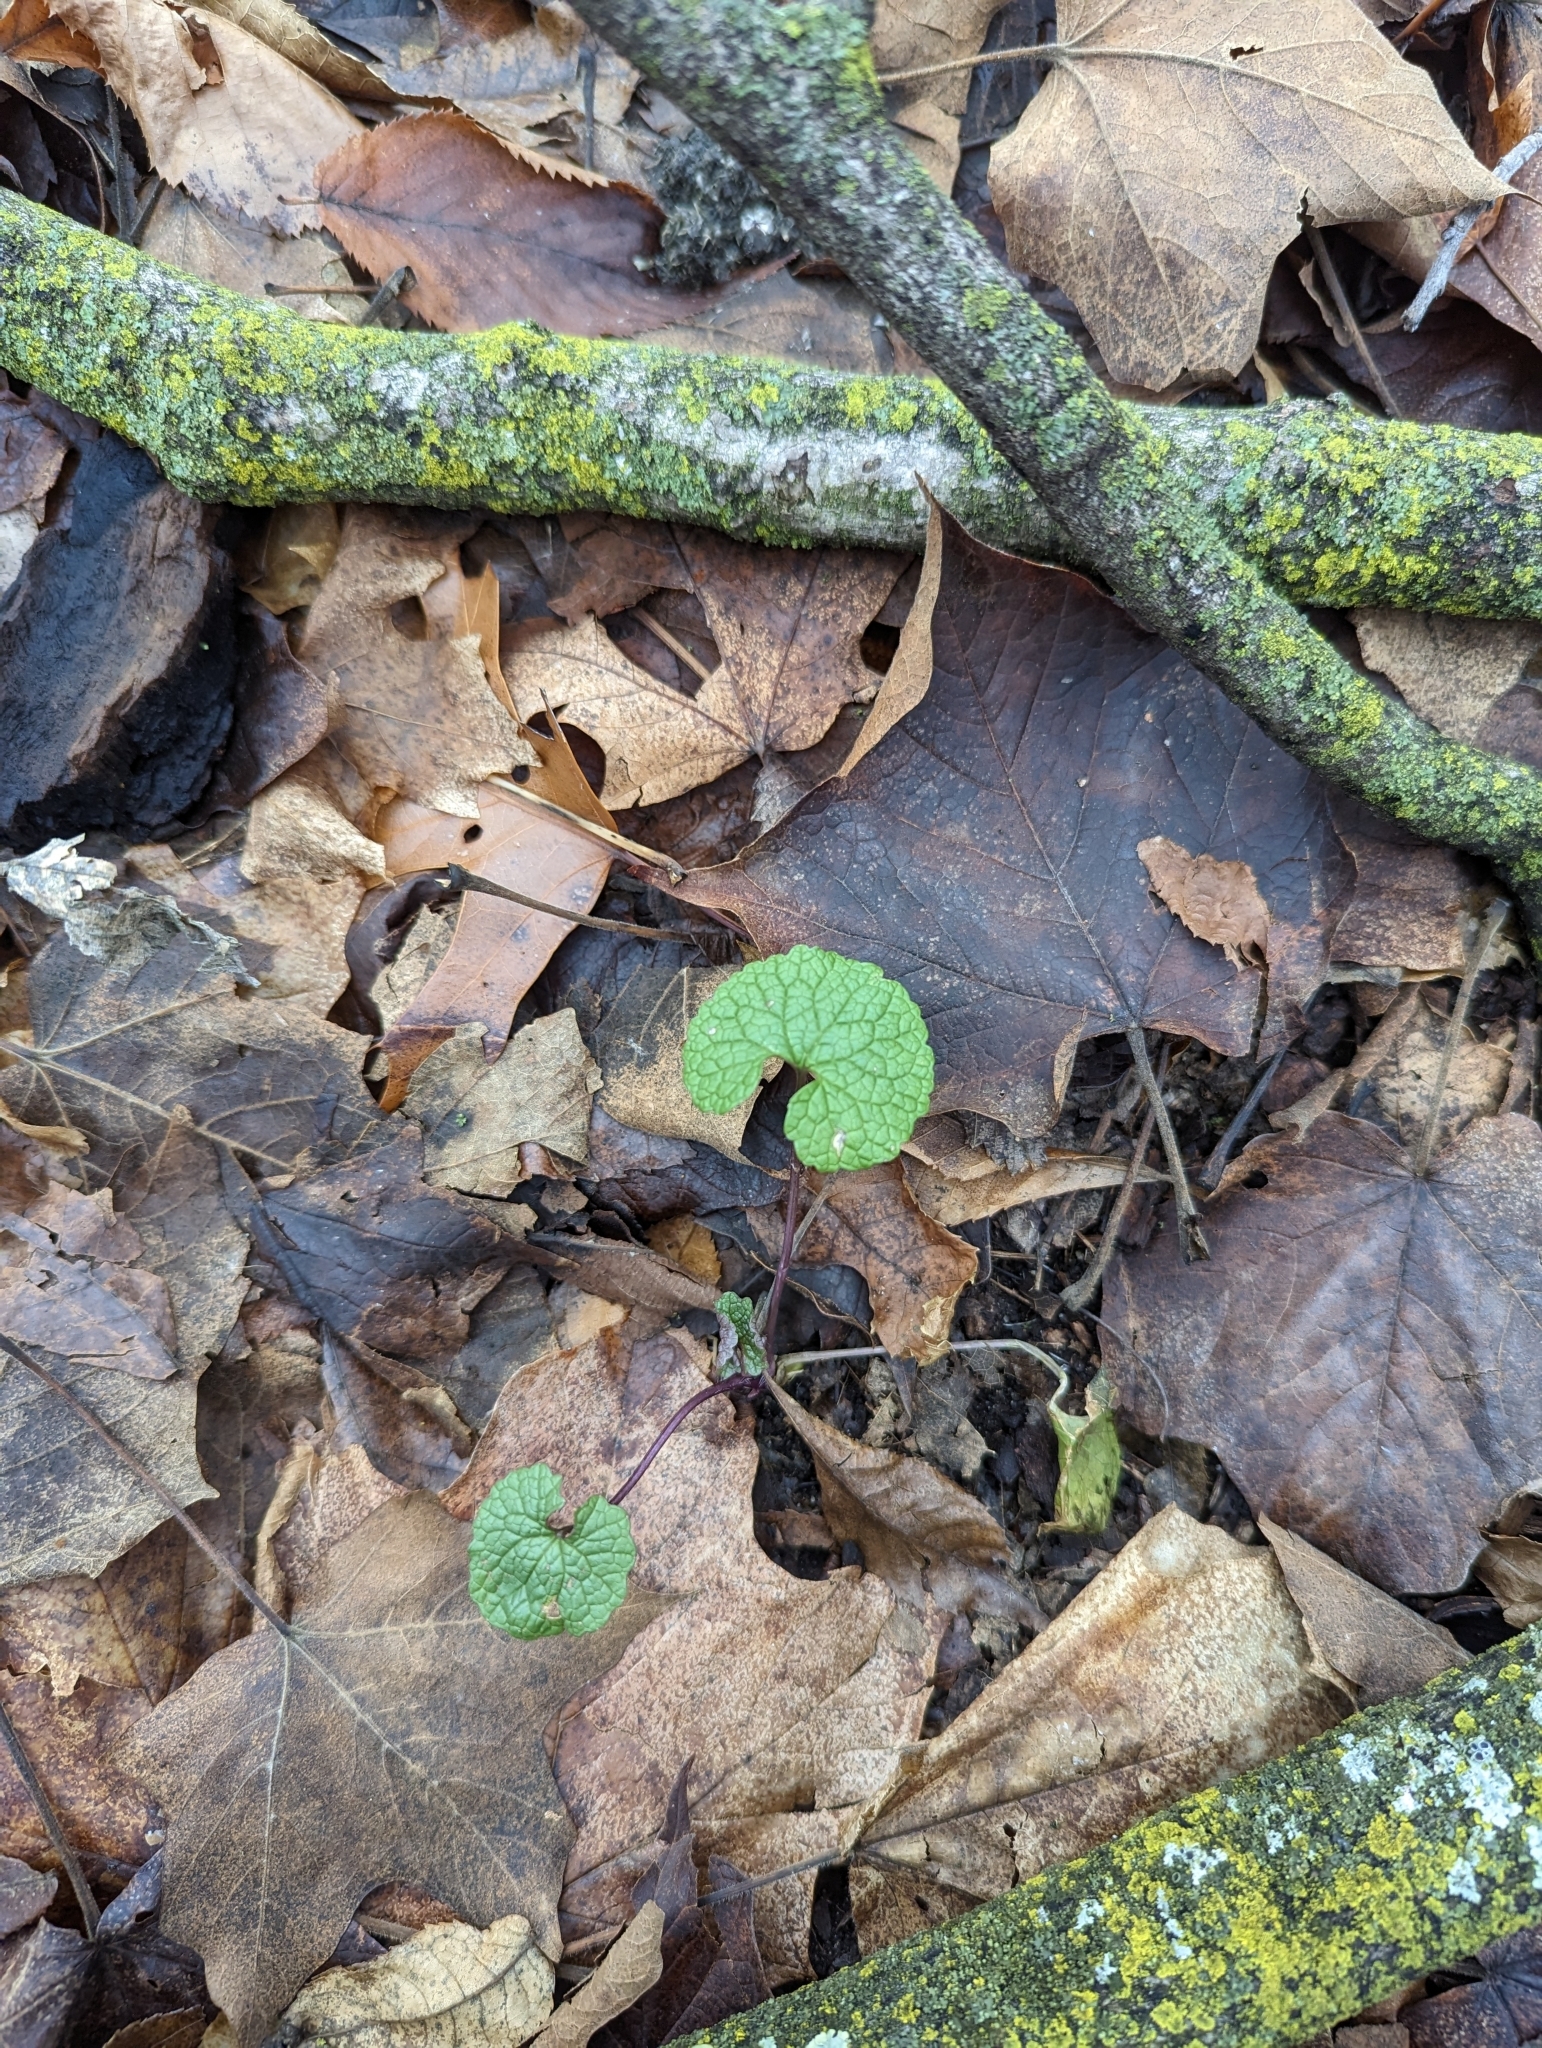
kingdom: Plantae
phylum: Tracheophyta
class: Magnoliopsida
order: Brassicales
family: Brassicaceae
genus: Alliaria
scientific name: Alliaria petiolata
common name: Garlic mustard
